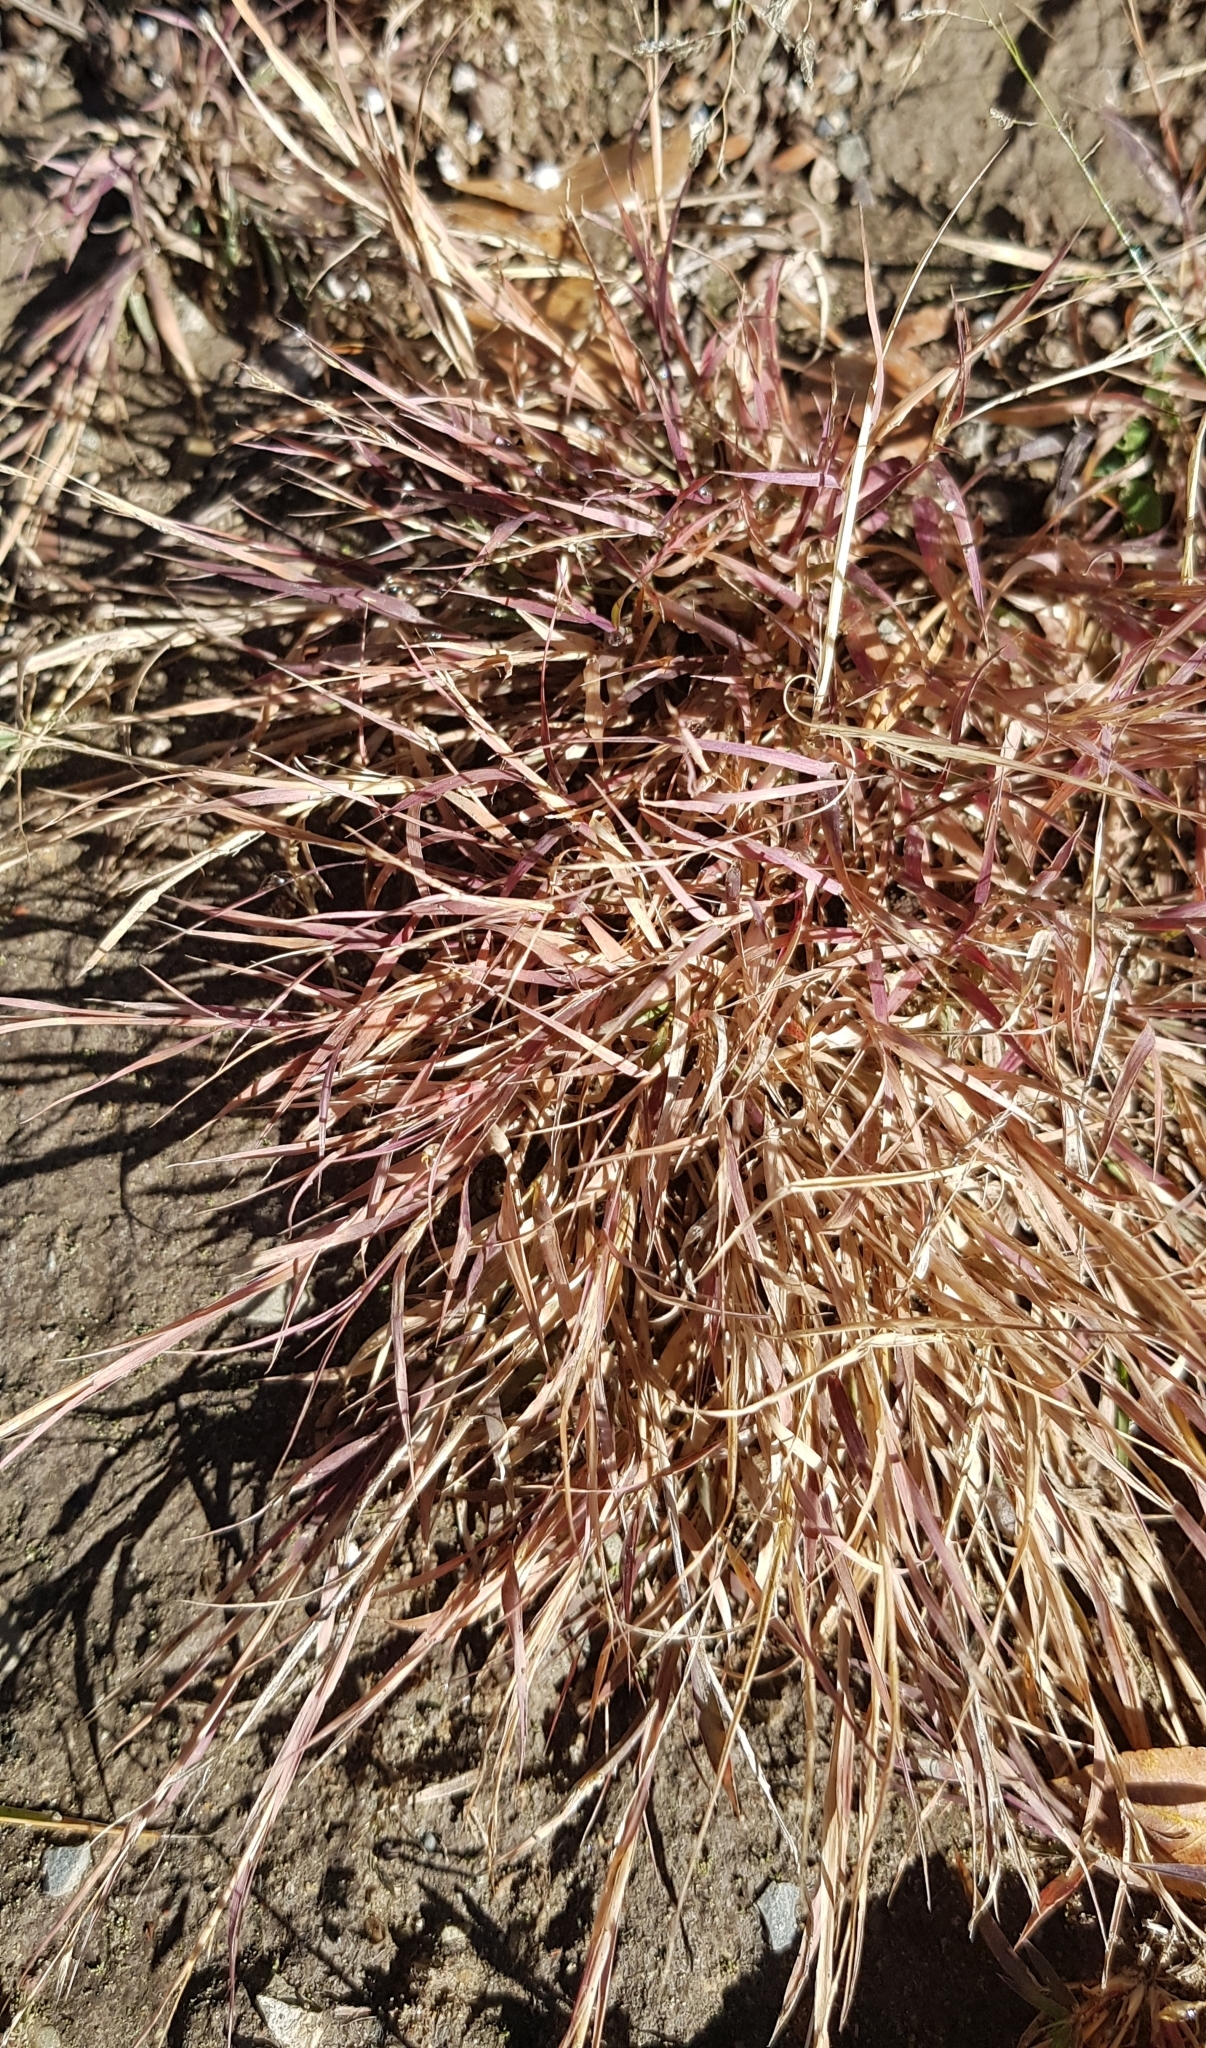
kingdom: Plantae
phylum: Tracheophyta
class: Liliopsida
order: Poales
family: Poaceae
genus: Cleistogenes
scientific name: Cleistogenes squarrosa
